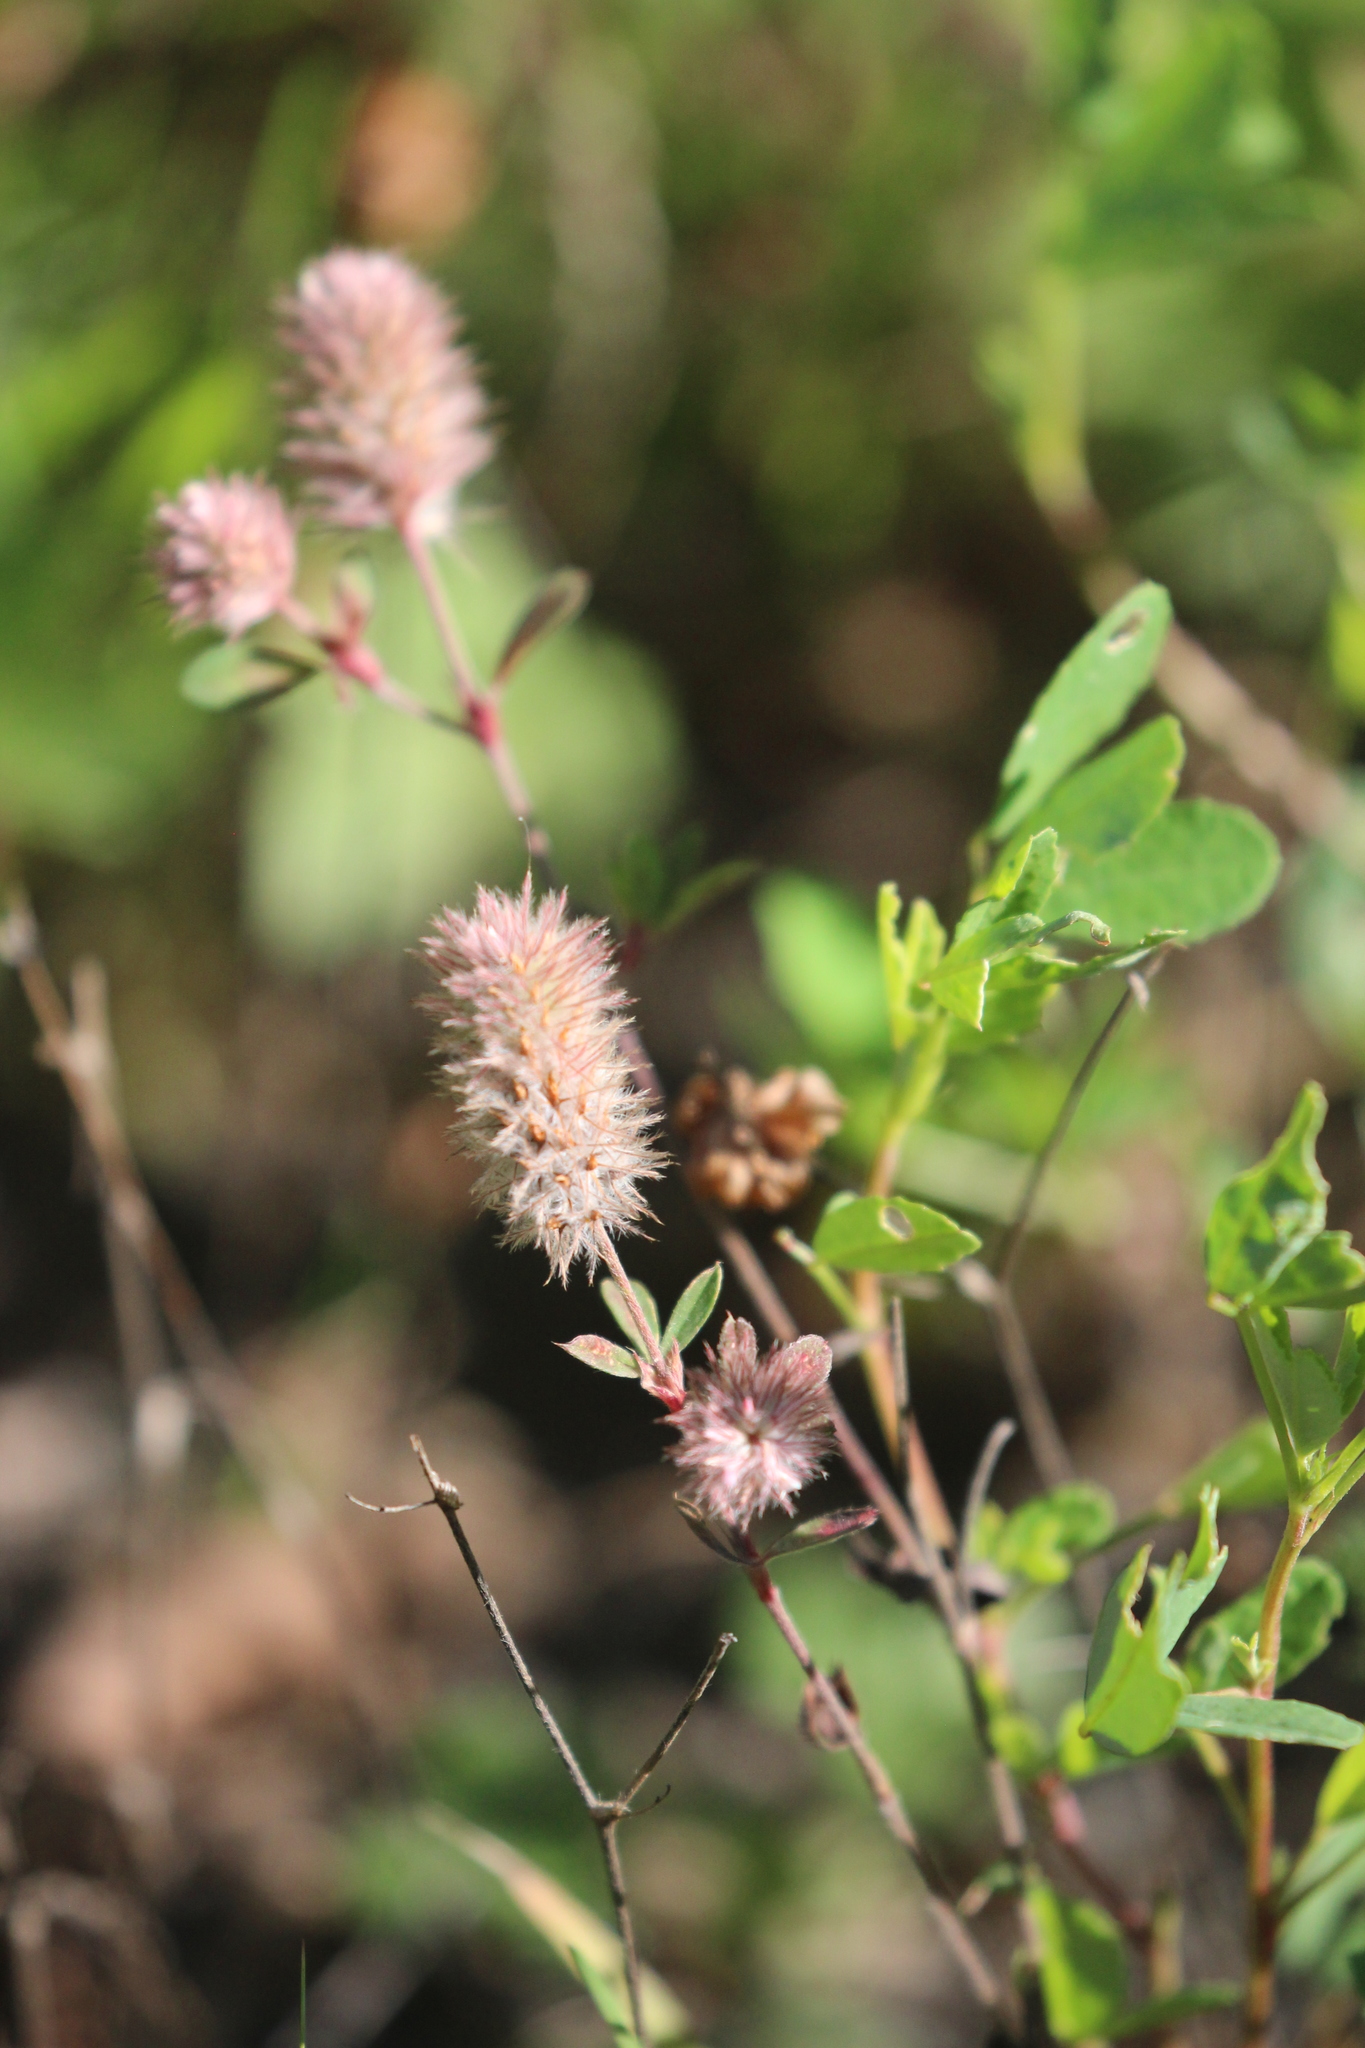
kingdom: Plantae
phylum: Tracheophyta
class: Magnoliopsida
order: Fabales
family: Fabaceae
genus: Trifolium
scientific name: Trifolium arvense
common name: Hare's-foot clover
